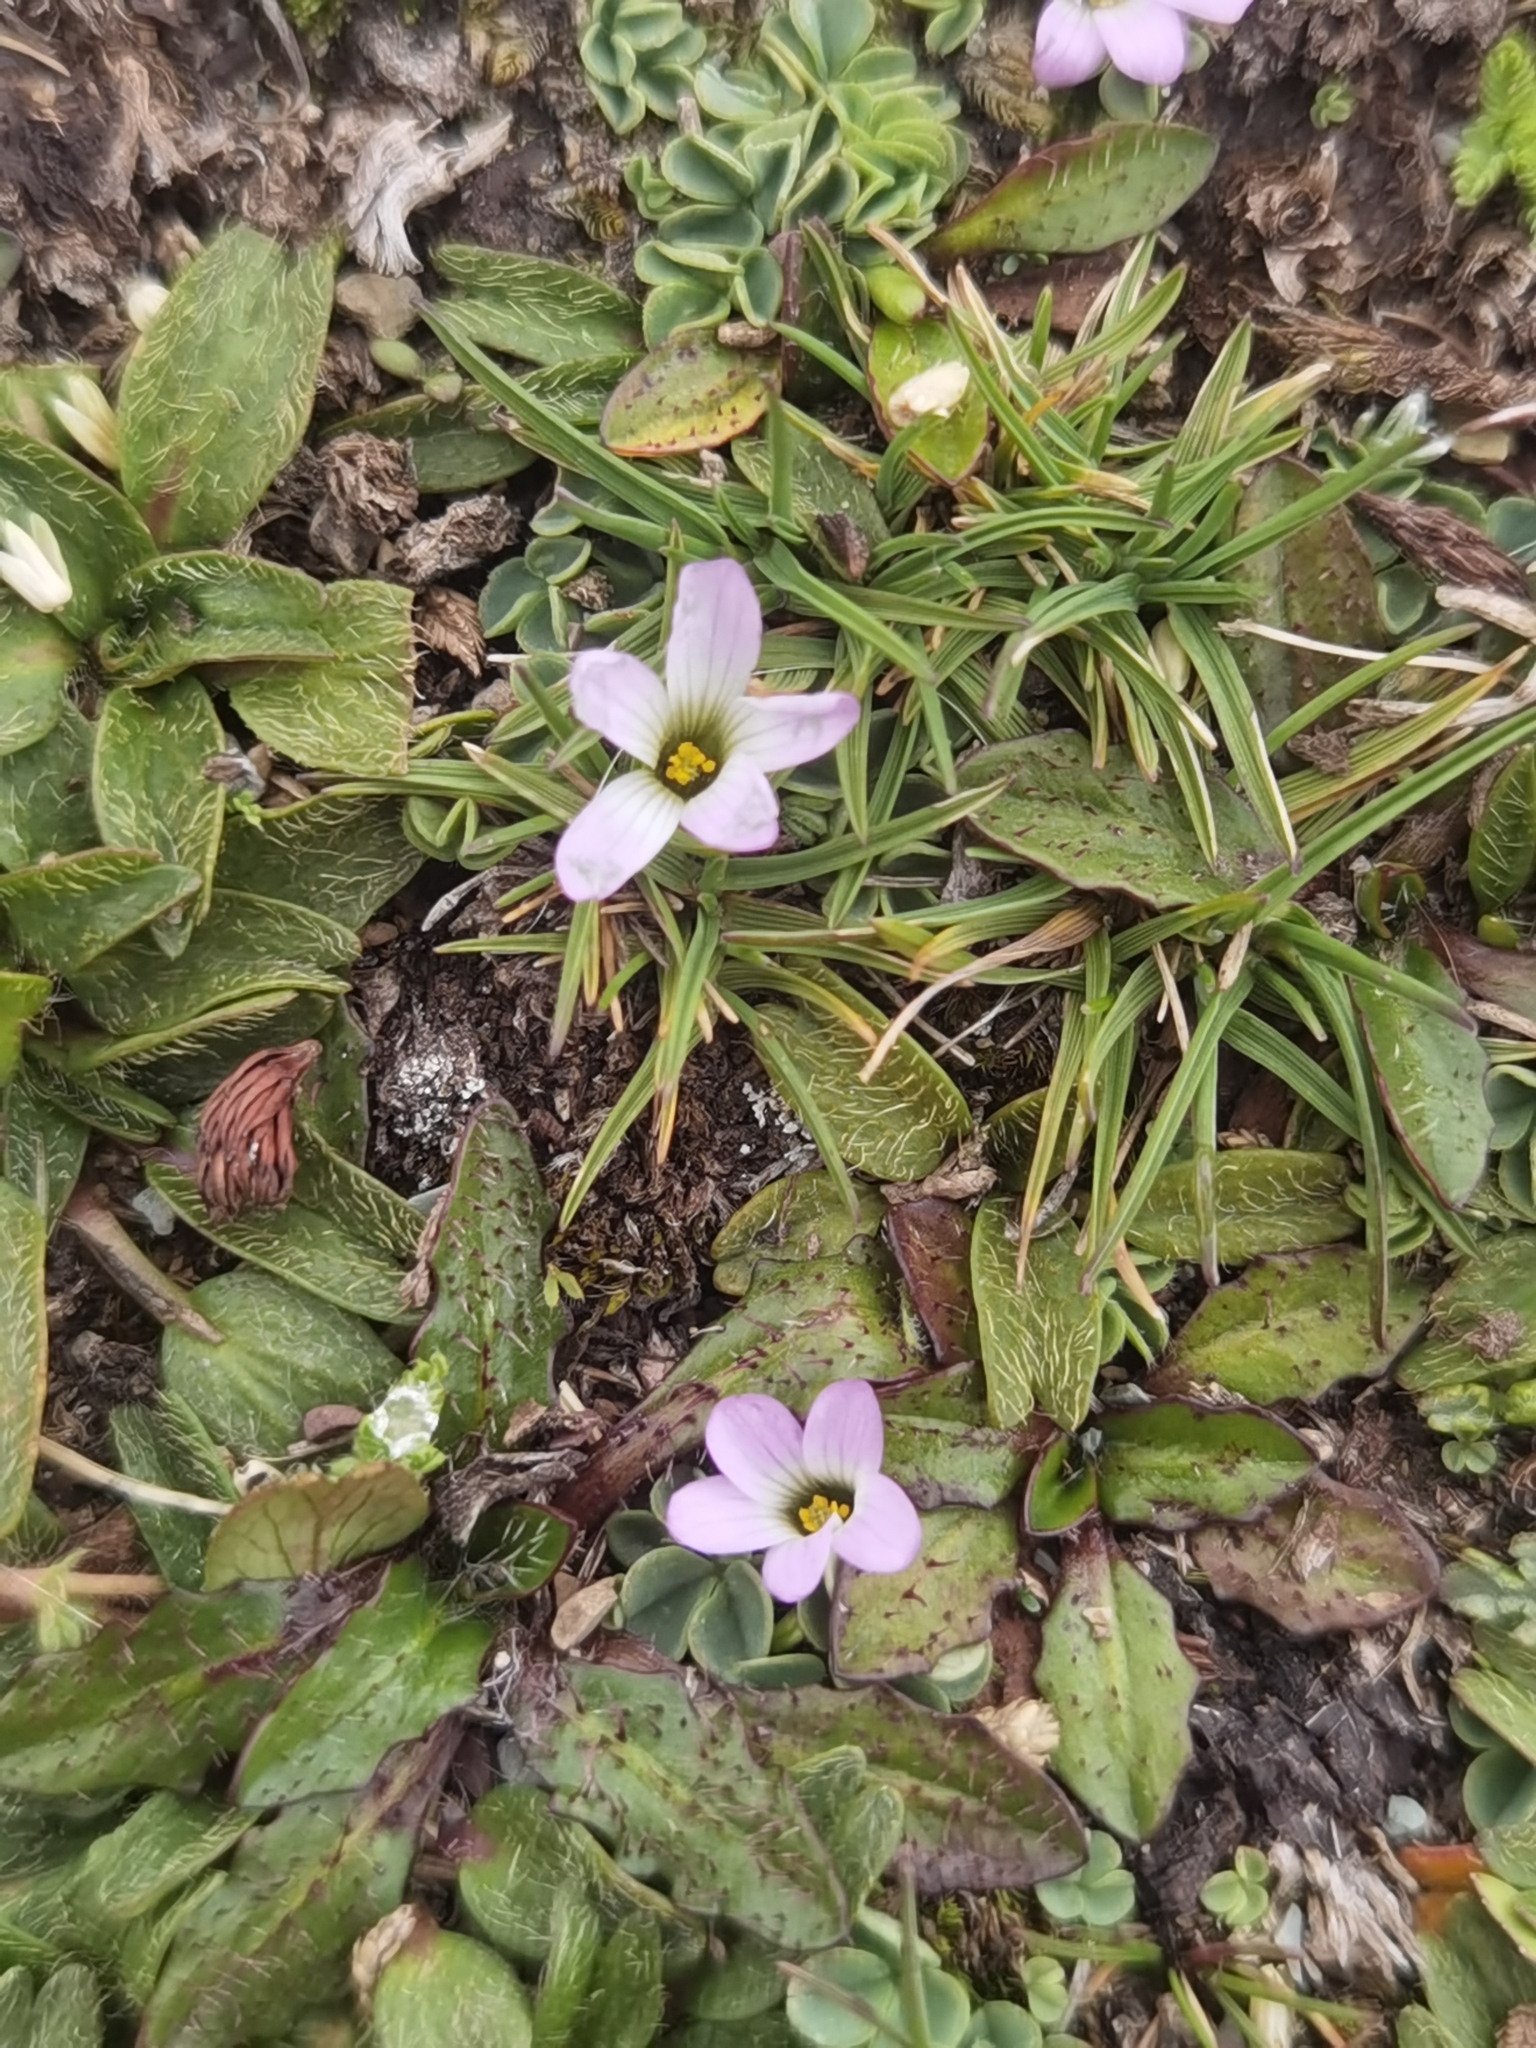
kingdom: Plantae
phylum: Tracheophyta
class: Magnoliopsida
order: Oxalidales
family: Oxalidaceae
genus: Oxalis
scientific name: Oxalis minima
